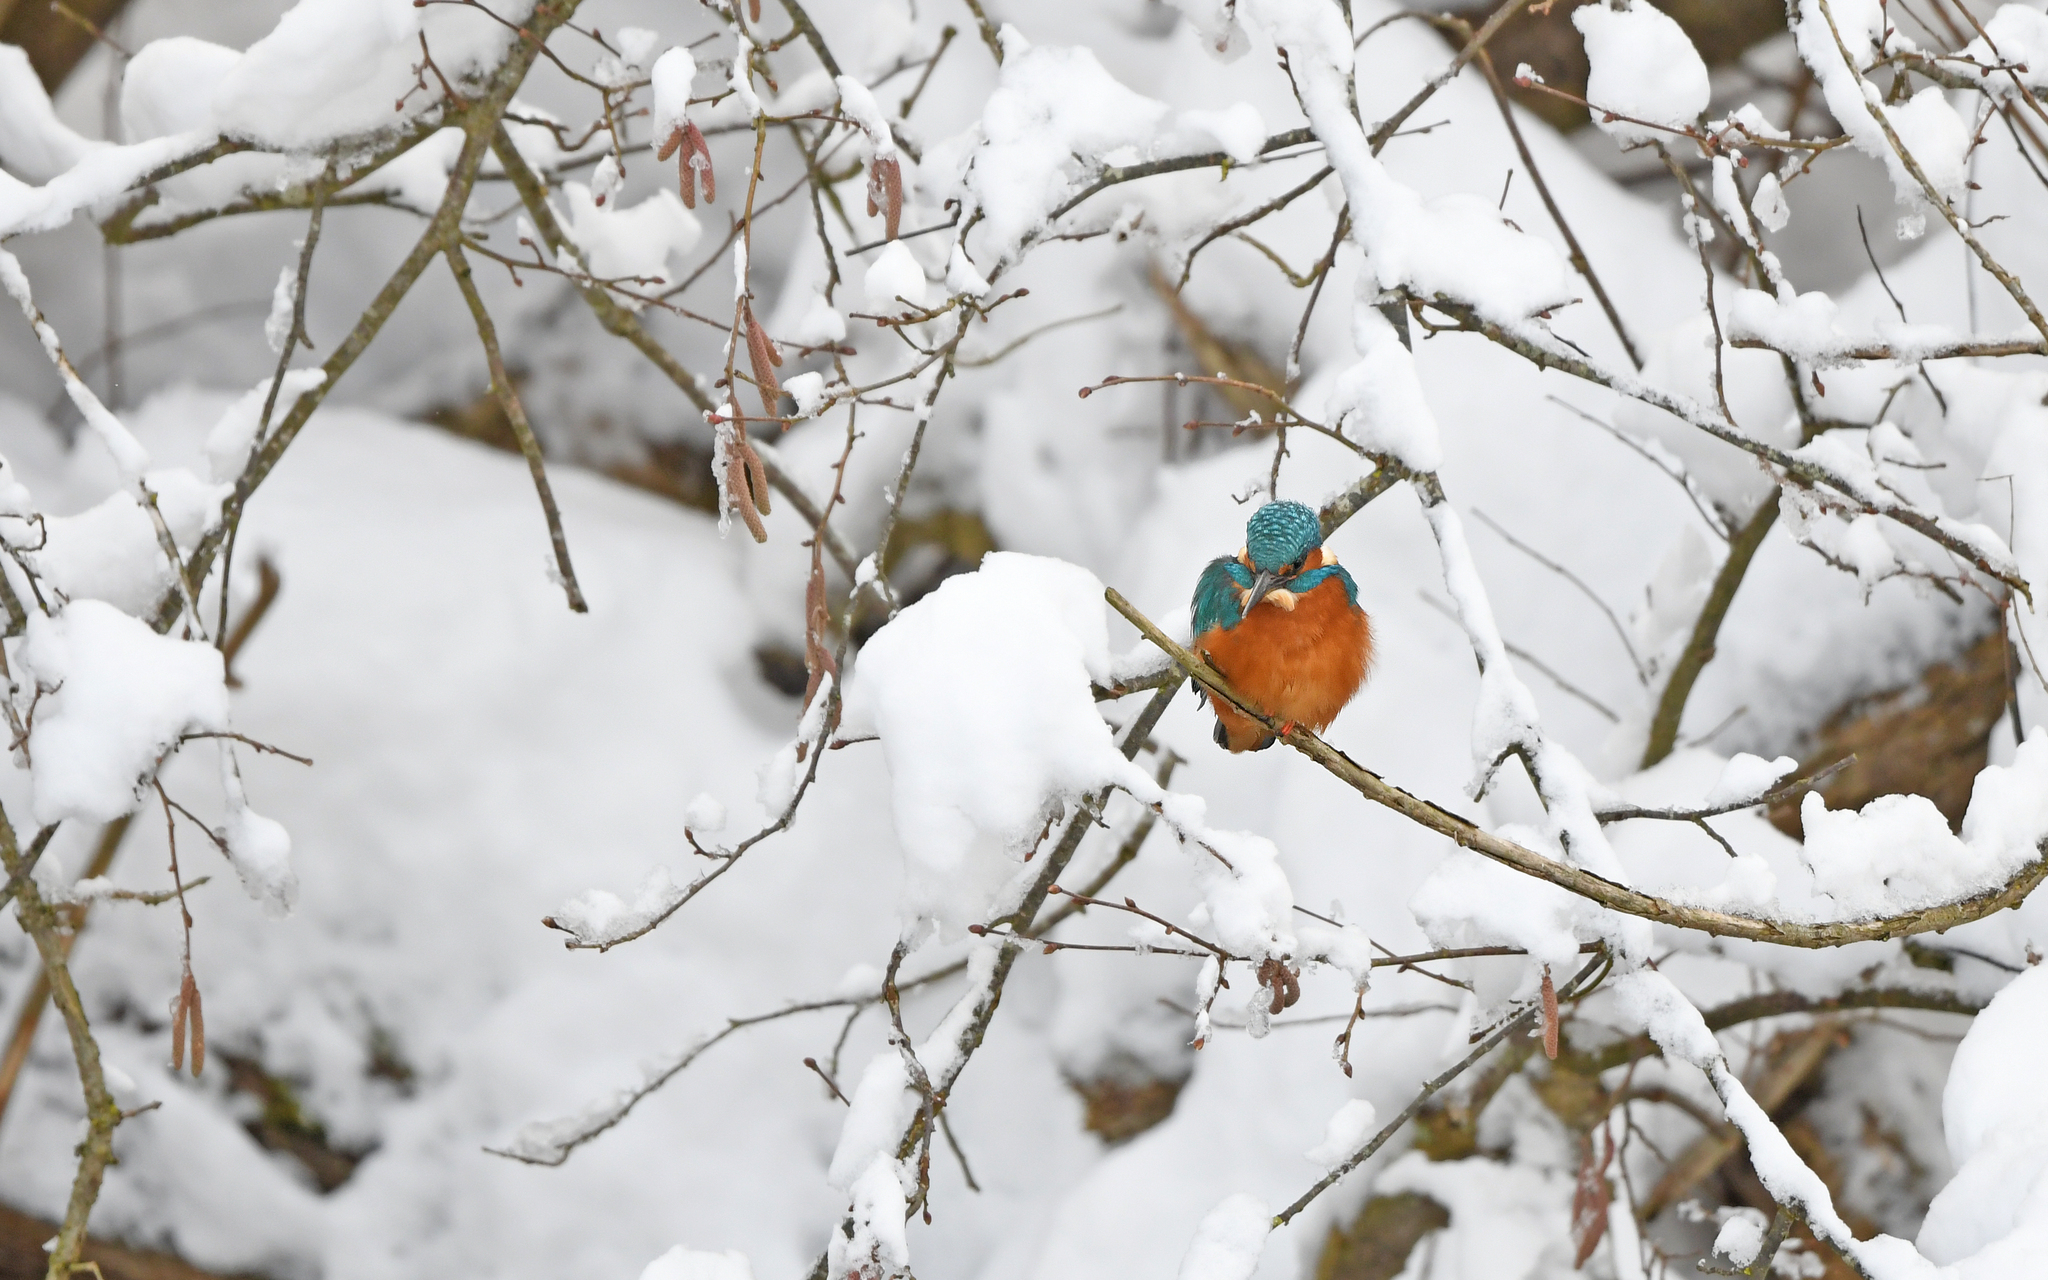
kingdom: Animalia
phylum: Chordata
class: Aves
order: Coraciiformes
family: Alcedinidae
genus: Alcedo
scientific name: Alcedo atthis
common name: Common kingfisher
